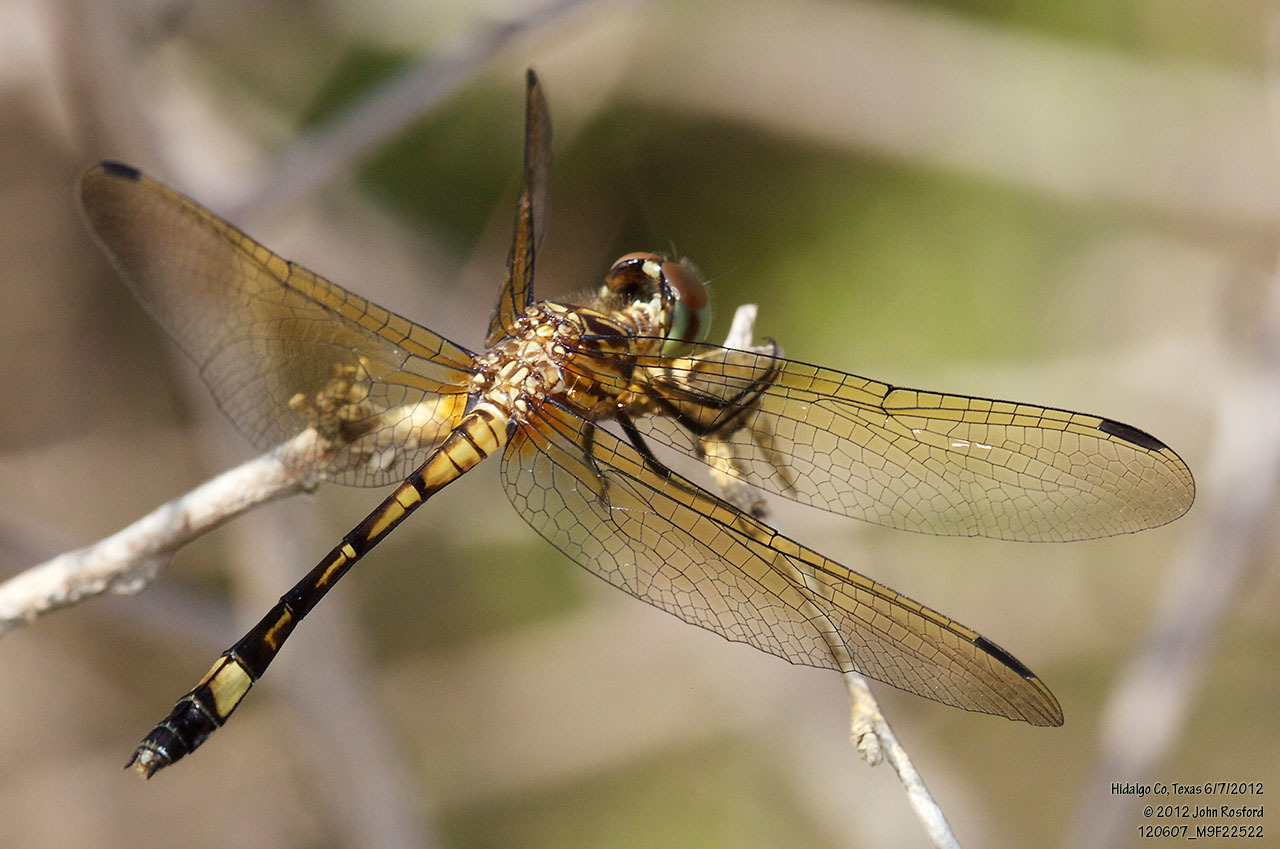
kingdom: Animalia
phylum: Arthropoda
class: Insecta
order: Odonata
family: Libellulidae
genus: Micrathyria
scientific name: Micrathyria dissocians
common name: Caribbean dasher
